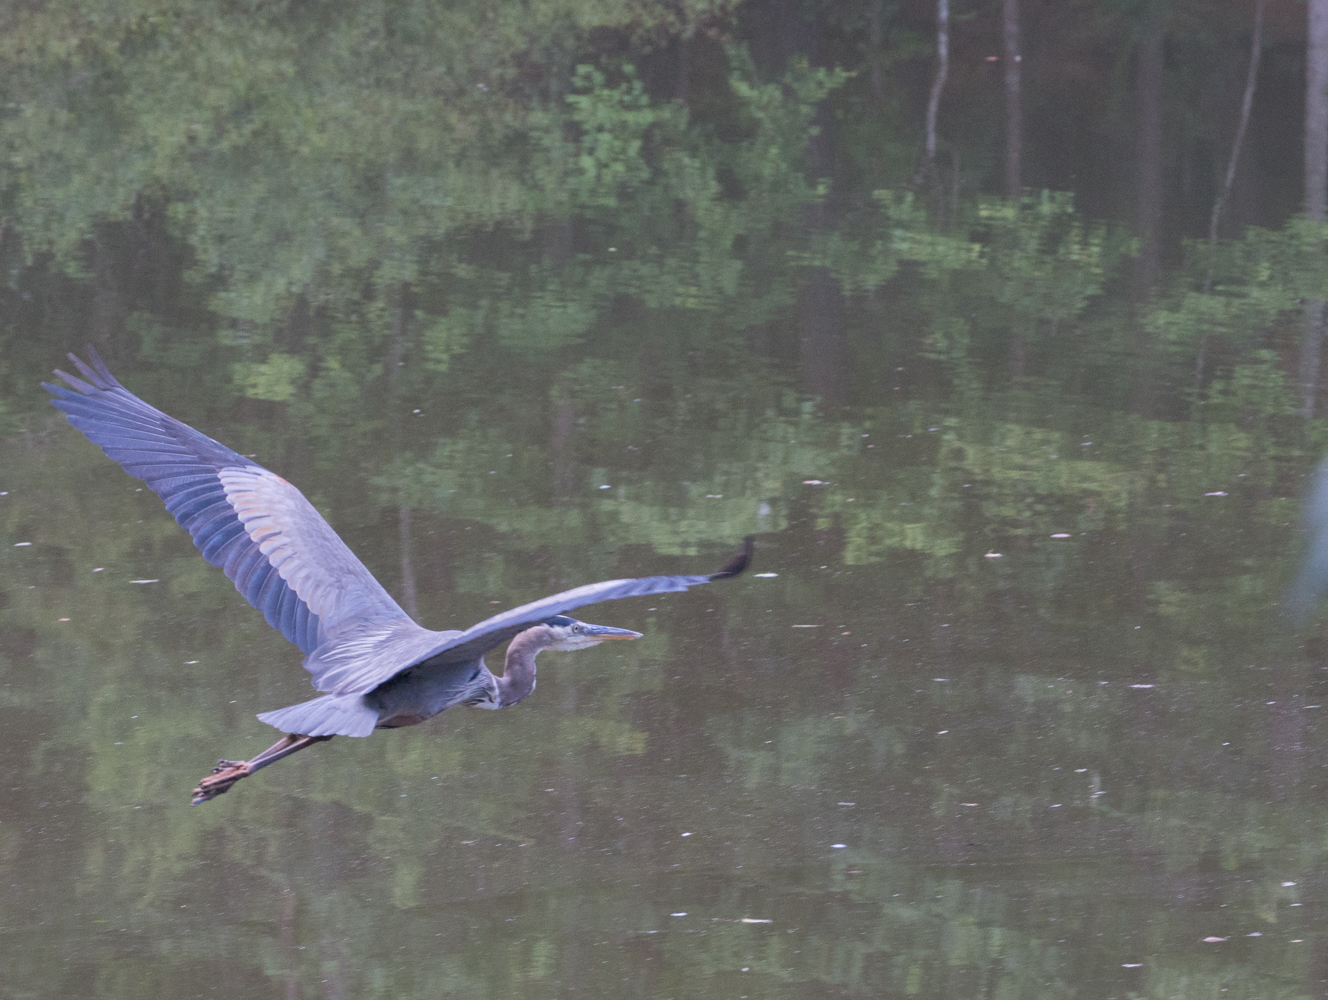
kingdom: Animalia
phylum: Chordata
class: Aves
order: Pelecaniformes
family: Ardeidae
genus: Ardea
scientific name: Ardea herodias
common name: Great blue heron
